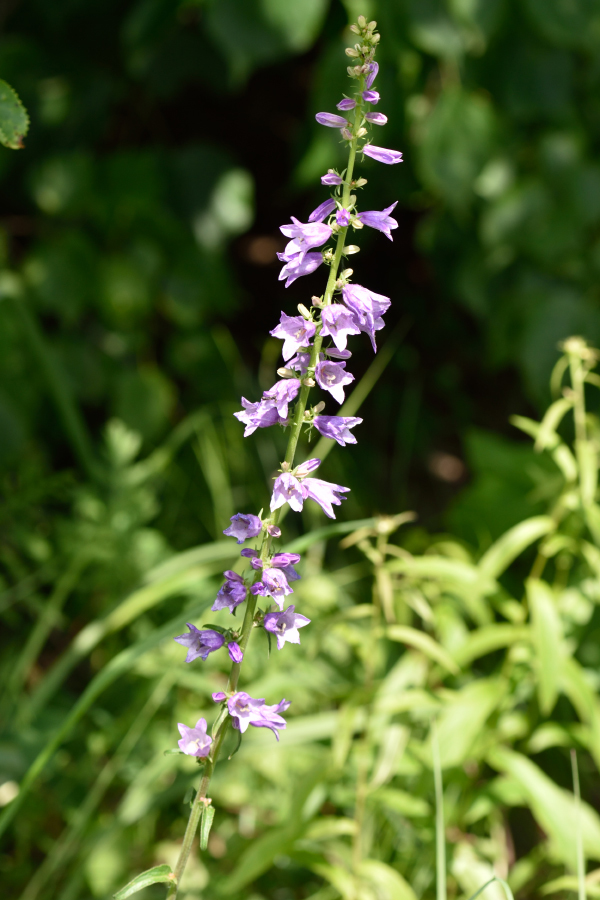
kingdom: Plantae
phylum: Tracheophyta
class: Magnoliopsida
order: Asterales
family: Campanulaceae
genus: Campanula
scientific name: Campanula bononiensis
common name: Pale bellflower
